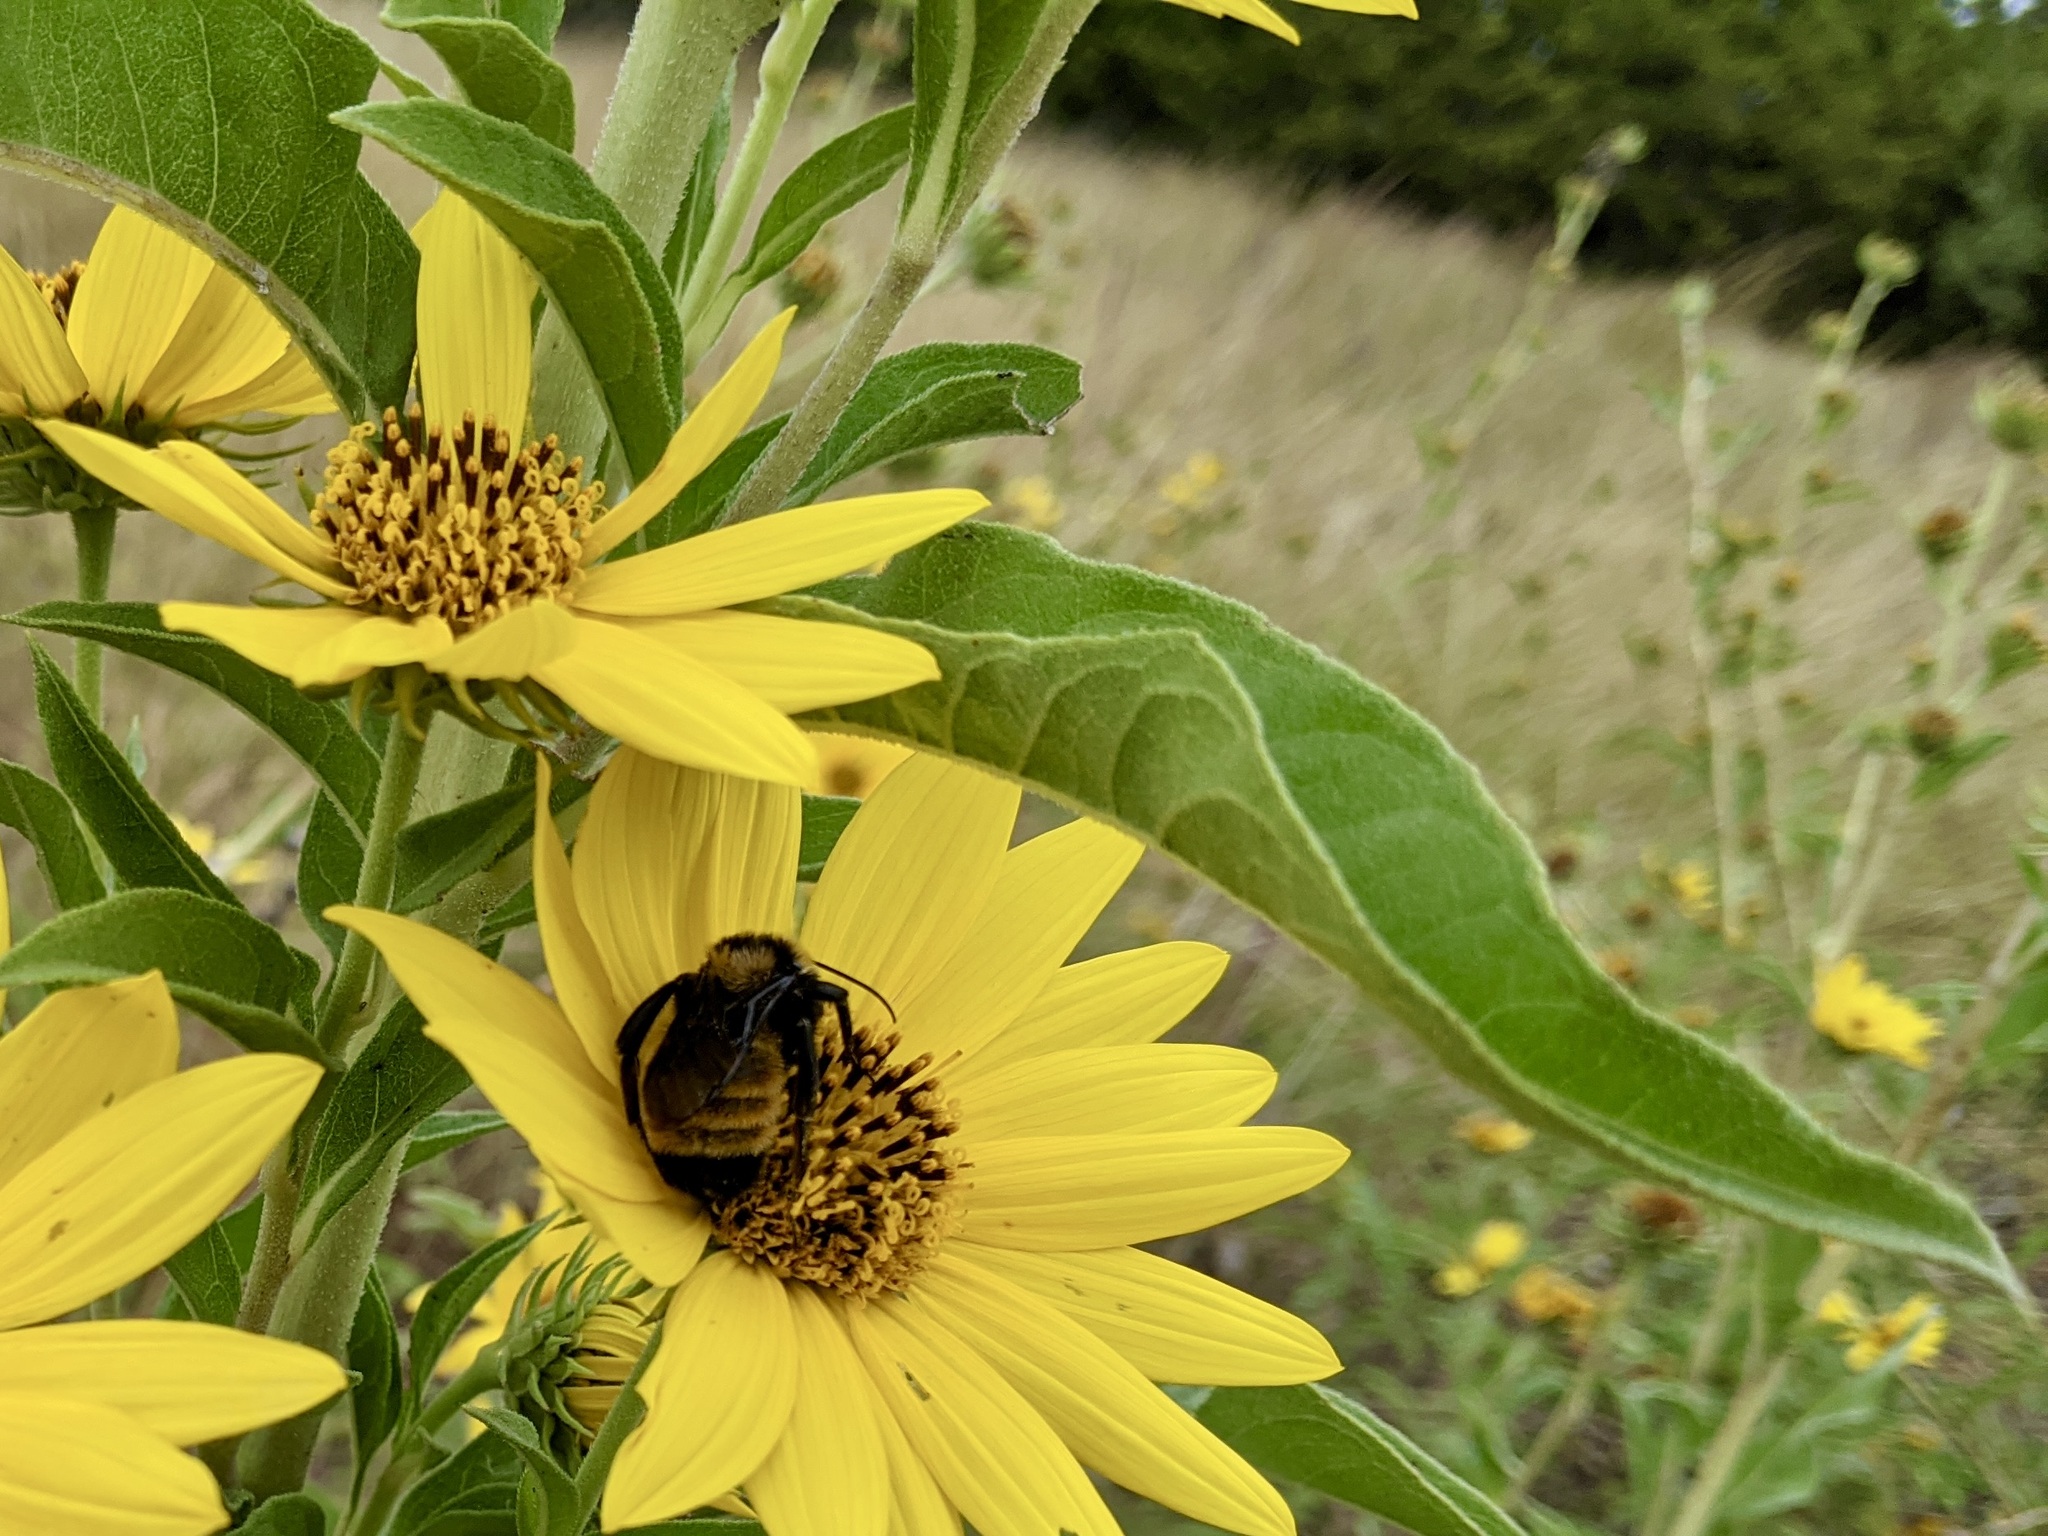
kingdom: Animalia
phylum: Arthropoda
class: Insecta
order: Hymenoptera
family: Apidae
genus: Bombus
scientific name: Bombus sonorus
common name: Sonoran bumble bee
